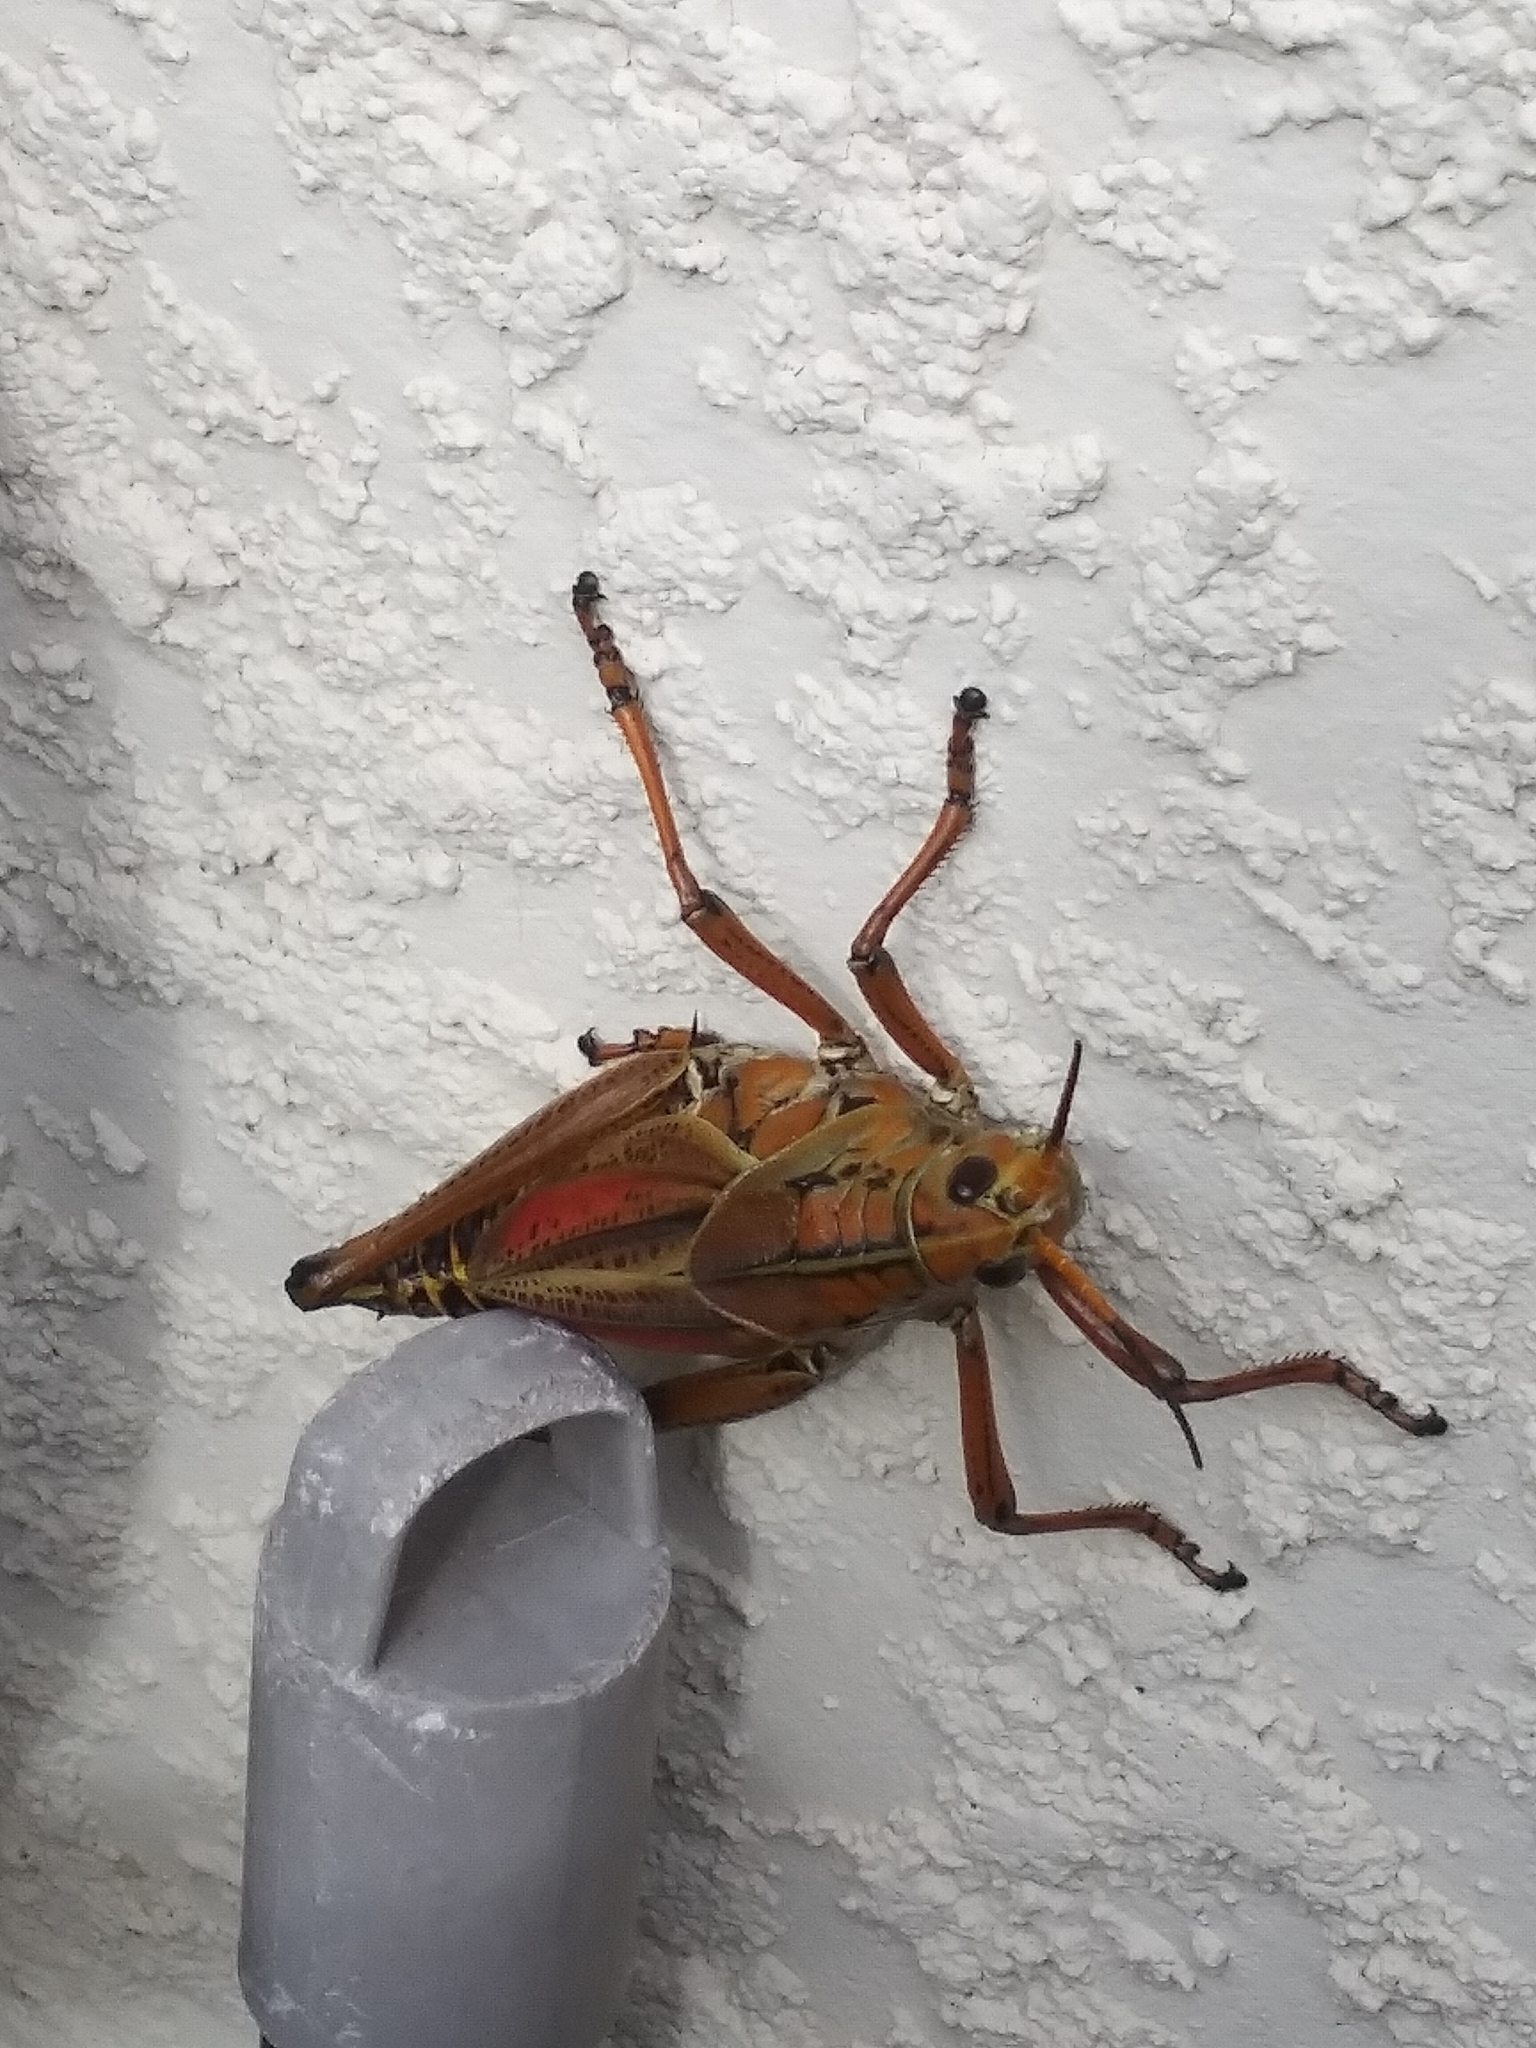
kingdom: Animalia
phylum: Arthropoda
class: Insecta
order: Orthoptera
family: Romaleidae
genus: Romalea
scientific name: Romalea microptera
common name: Eastern lubber grasshopper
